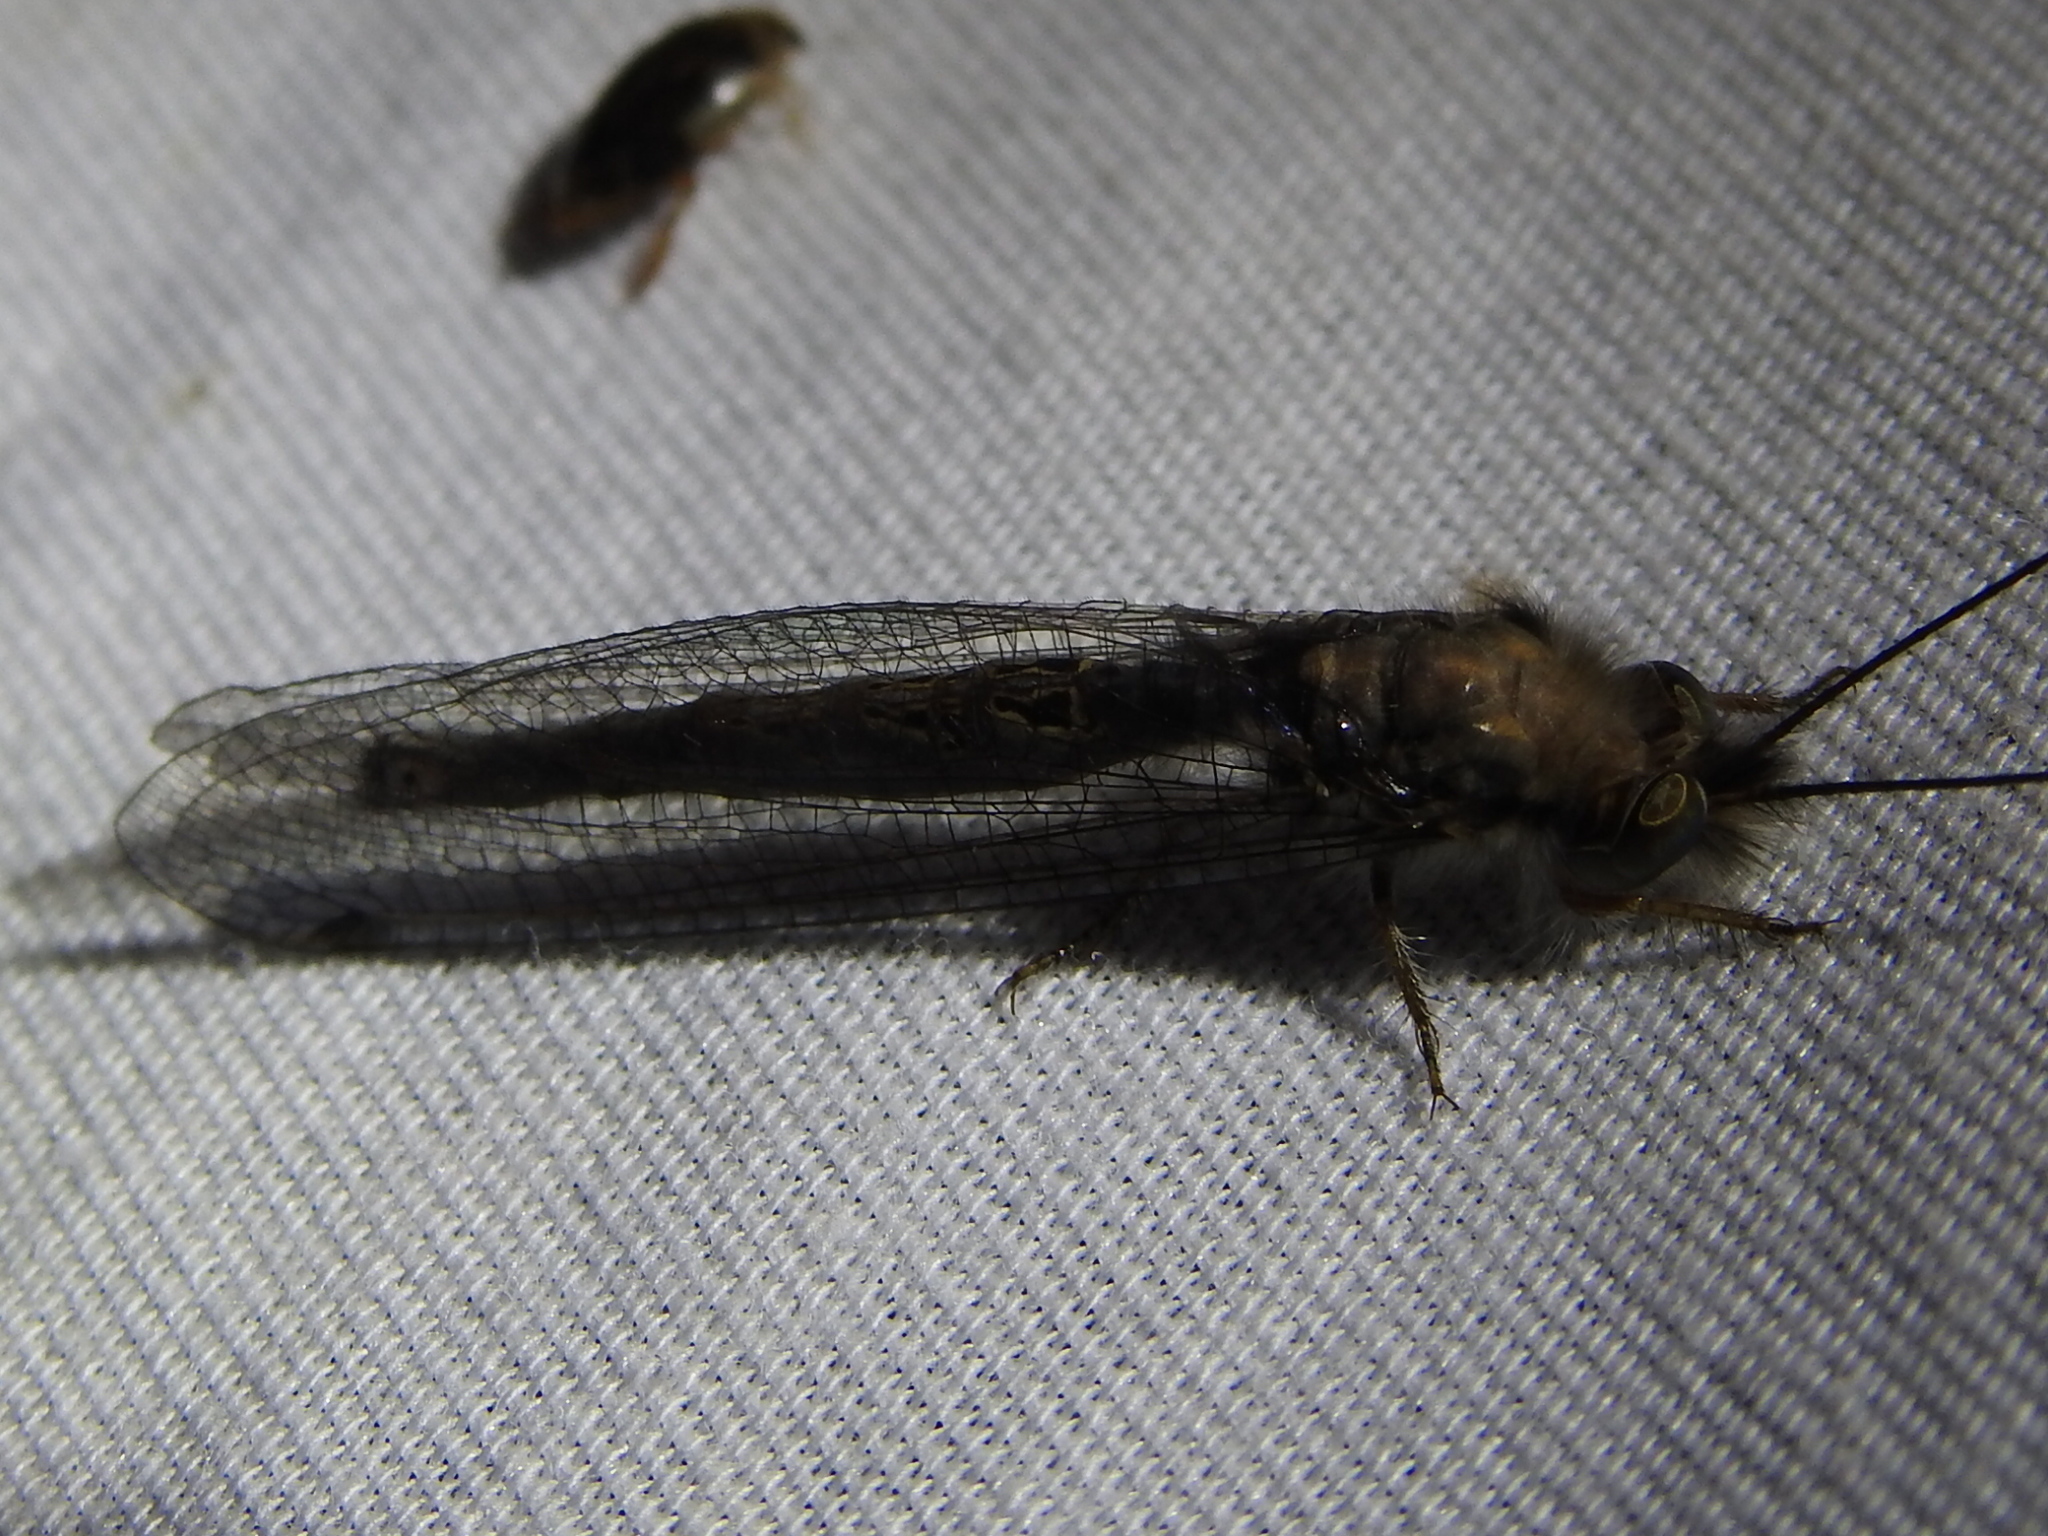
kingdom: Animalia
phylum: Arthropoda
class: Insecta
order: Neuroptera
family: Ascalaphidae
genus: Ululodes
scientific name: Ululodes macleayanus
